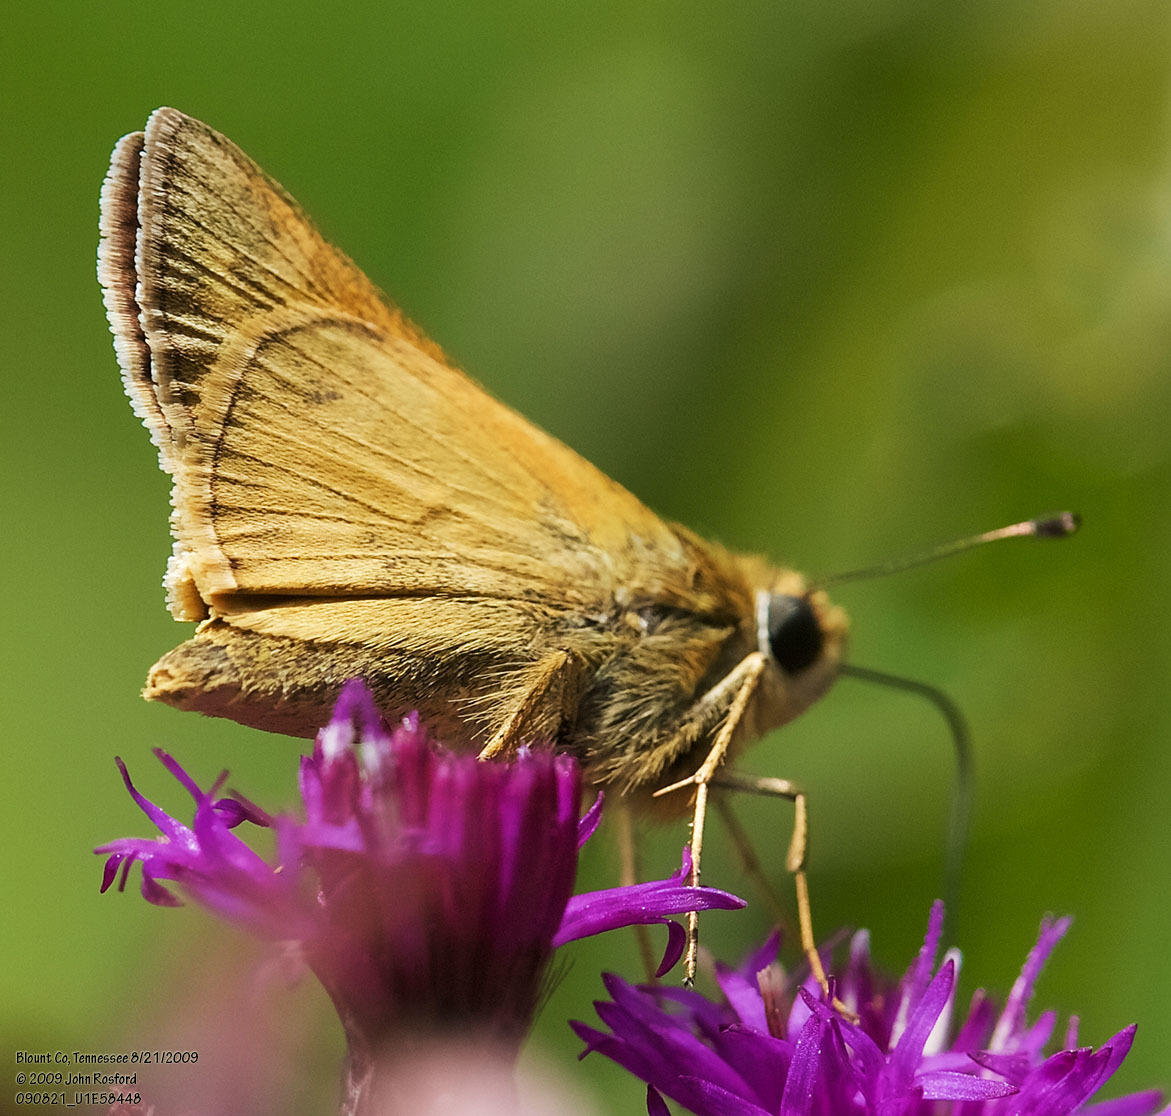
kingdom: Animalia
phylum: Arthropoda
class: Insecta
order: Lepidoptera
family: Hesperiidae
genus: Atalopedes
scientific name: Atalopedes
